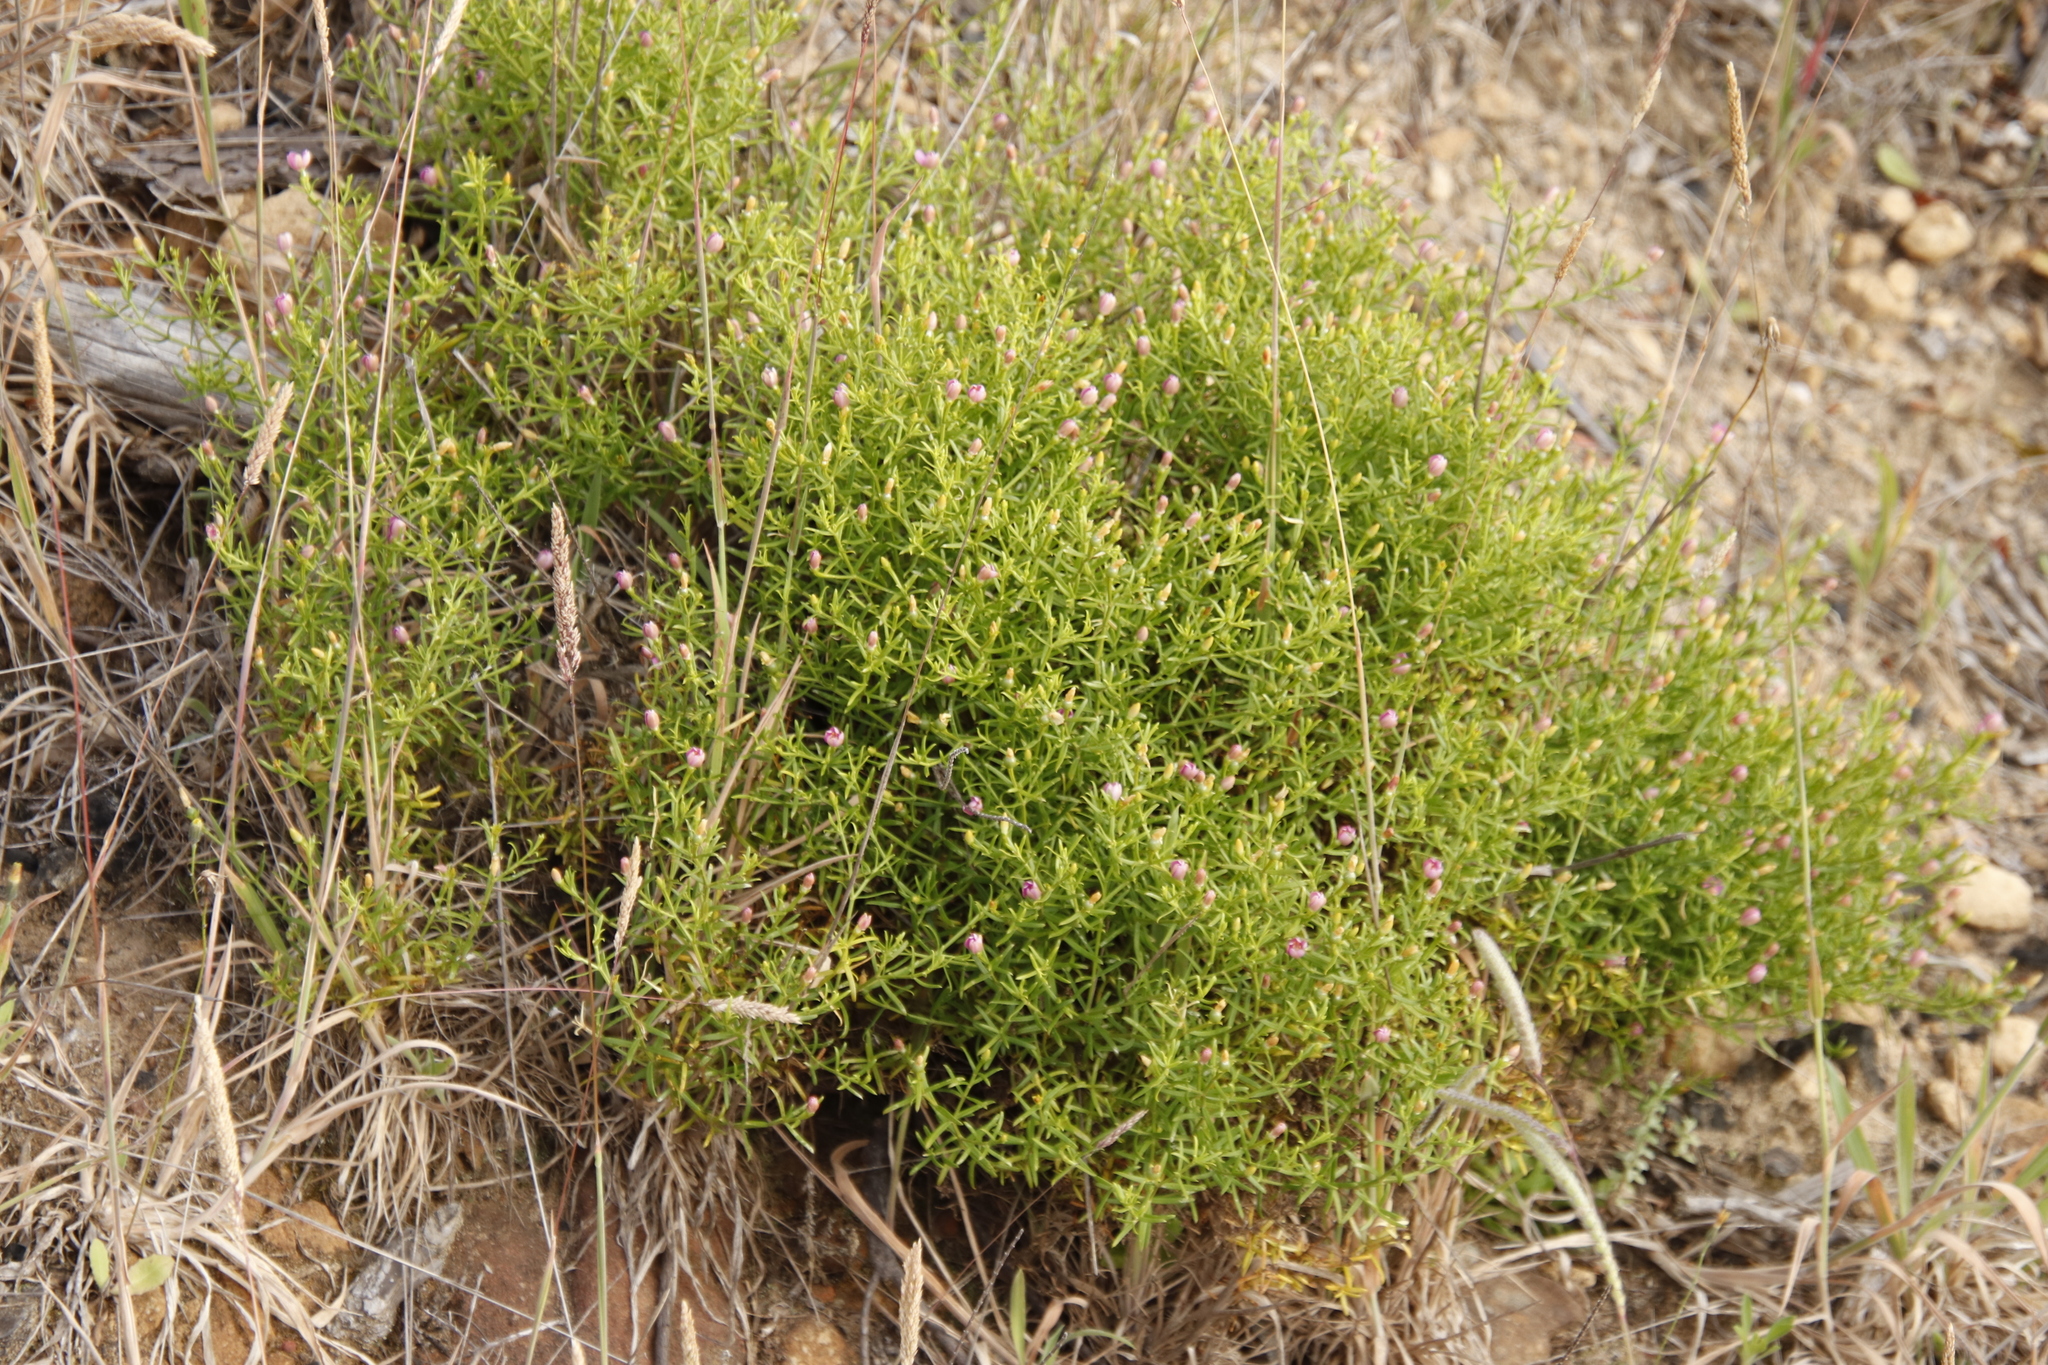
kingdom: Plantae
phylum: Tracheophyta
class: Magnoliopsida
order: Gentianales
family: Gentianaceae
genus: Chironia
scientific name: Chironia baccifera
